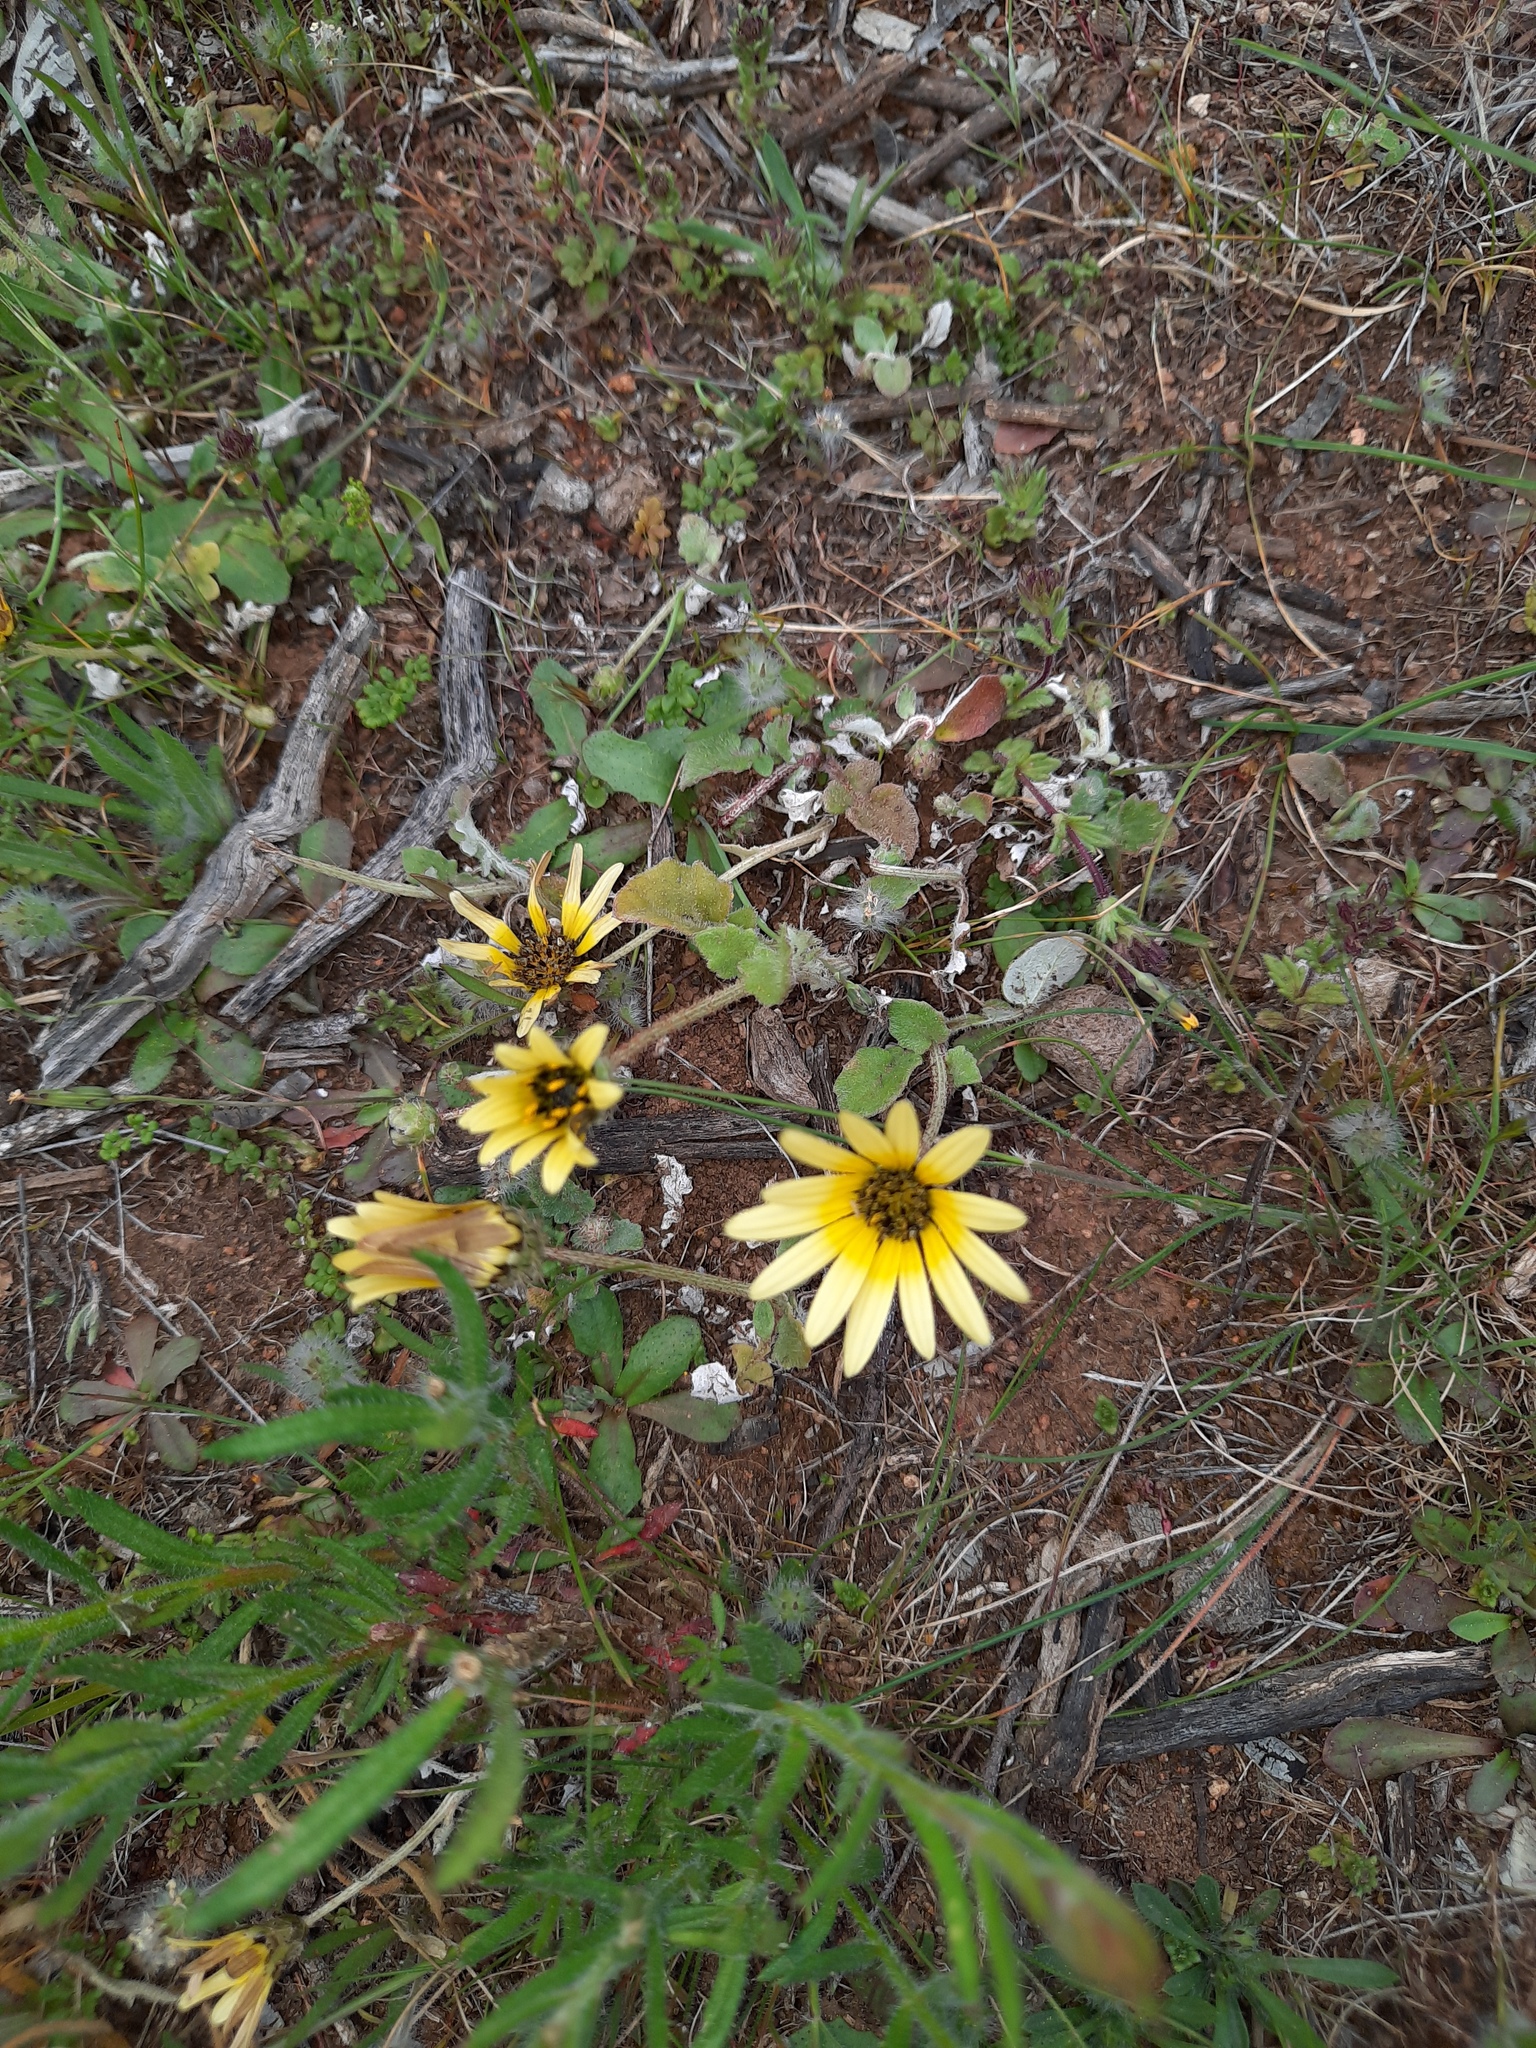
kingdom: Plantae
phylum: Tracheophyta
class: Magnoliopsida
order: Asterales
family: Asteraceae
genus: Arctotheca
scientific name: Arctotheca calendula
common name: Capeweed
